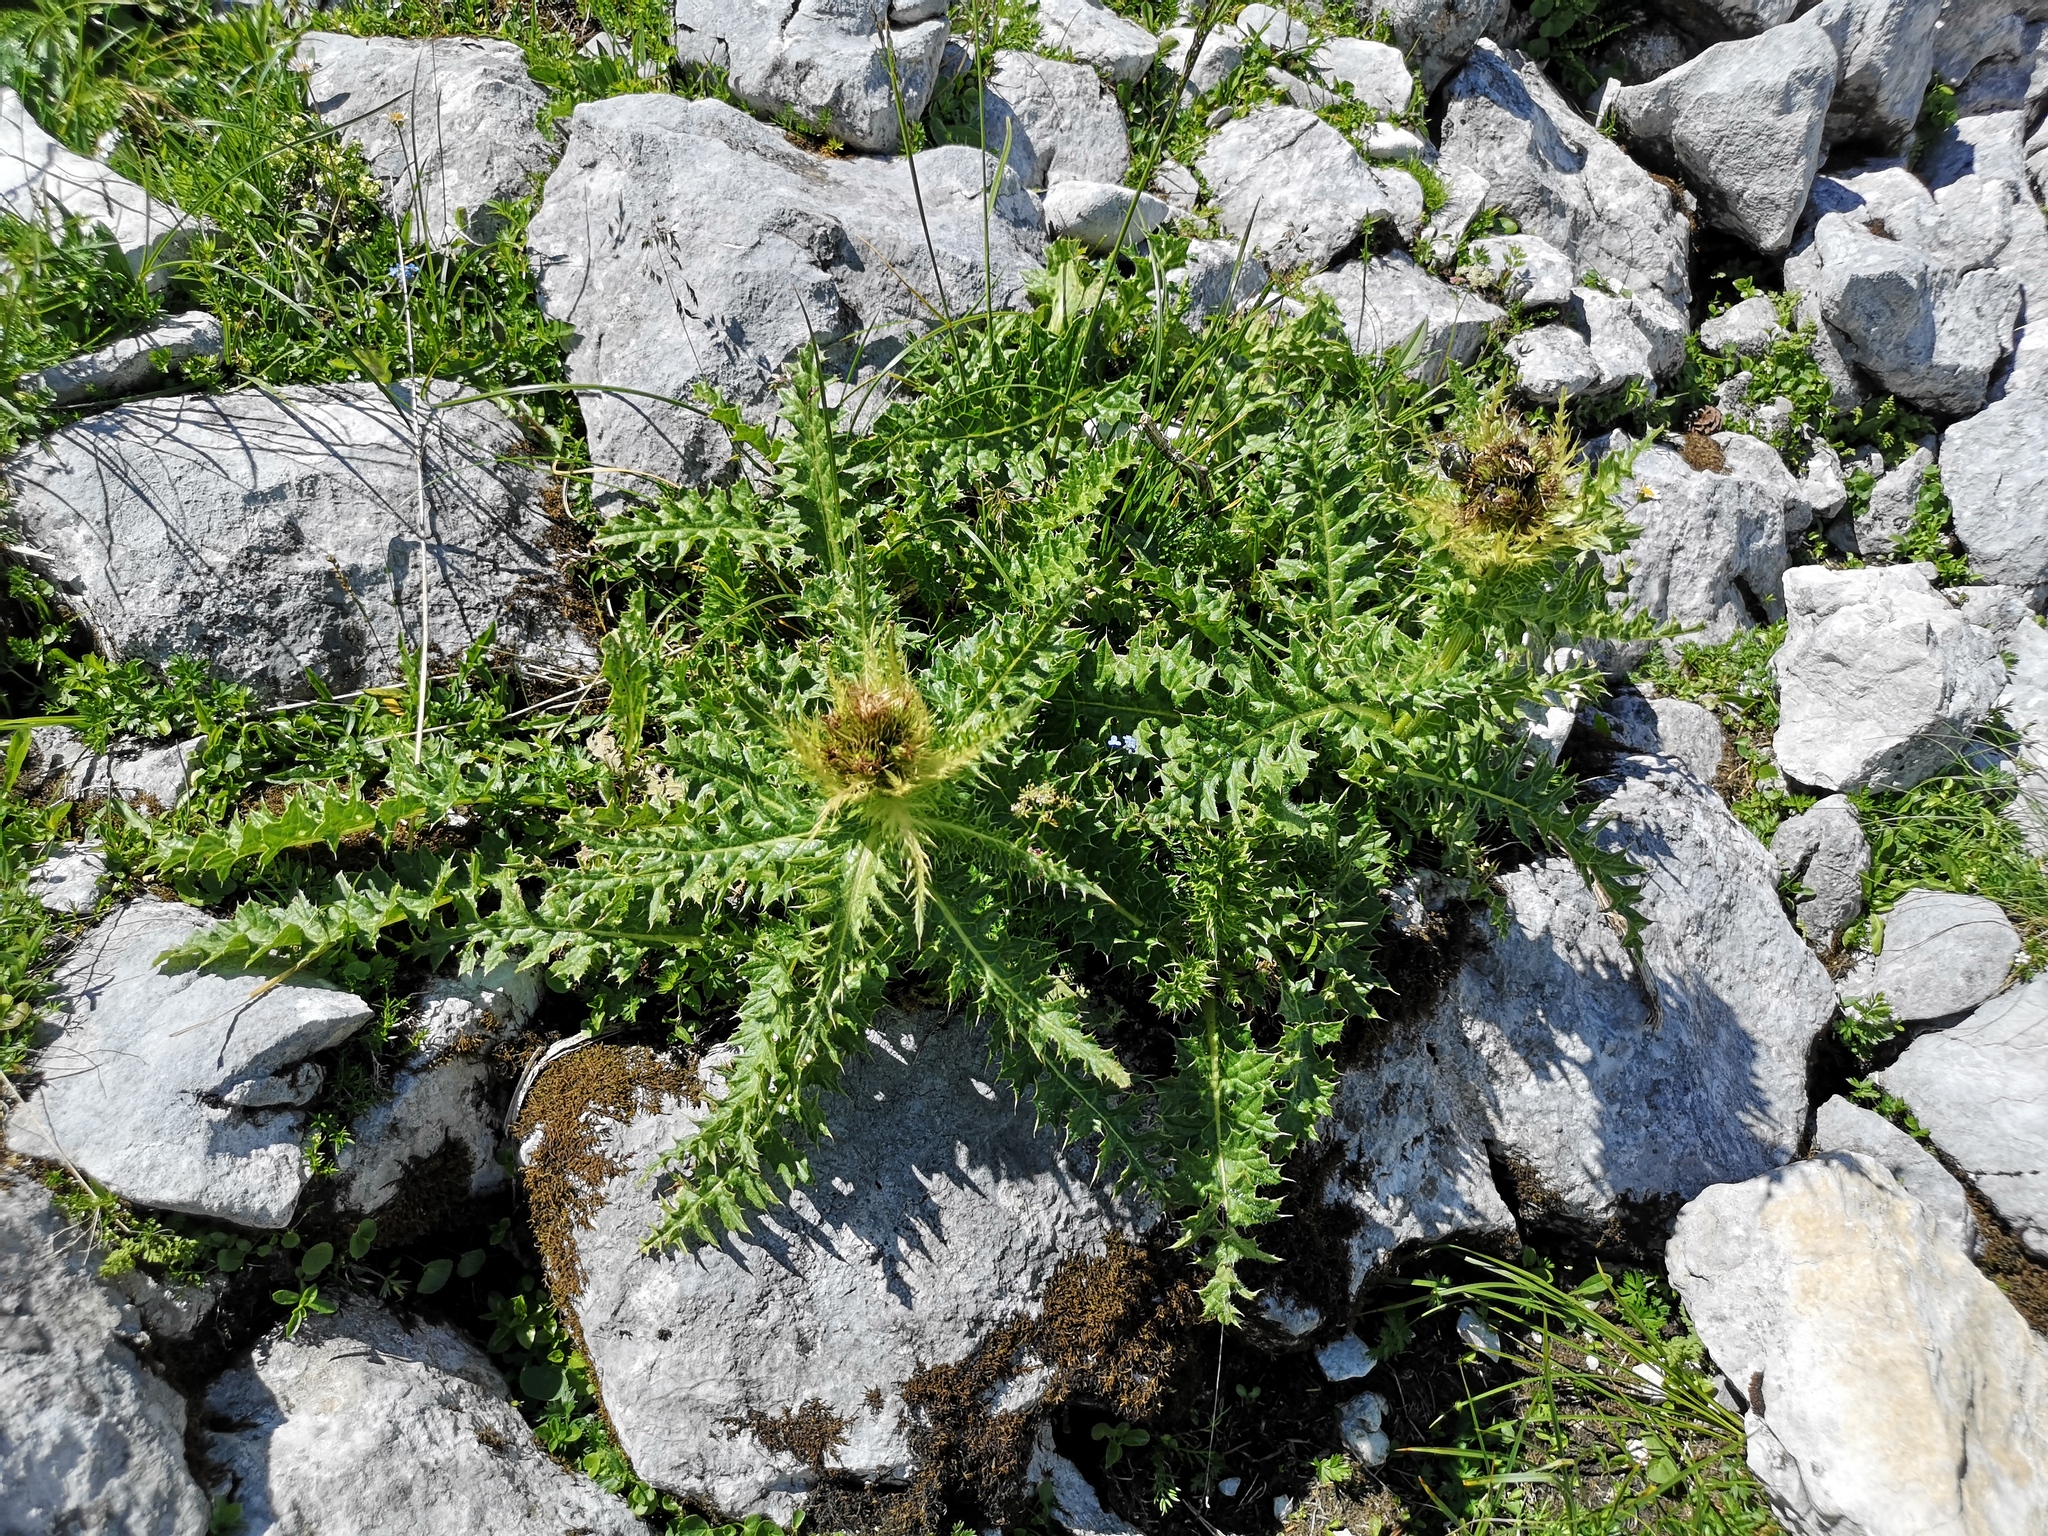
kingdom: Plantae
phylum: Tracheophyta
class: Magnoliopsida
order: Asterales
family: Asteraceae
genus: Cirsium
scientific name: Cirsium spinosissimum
